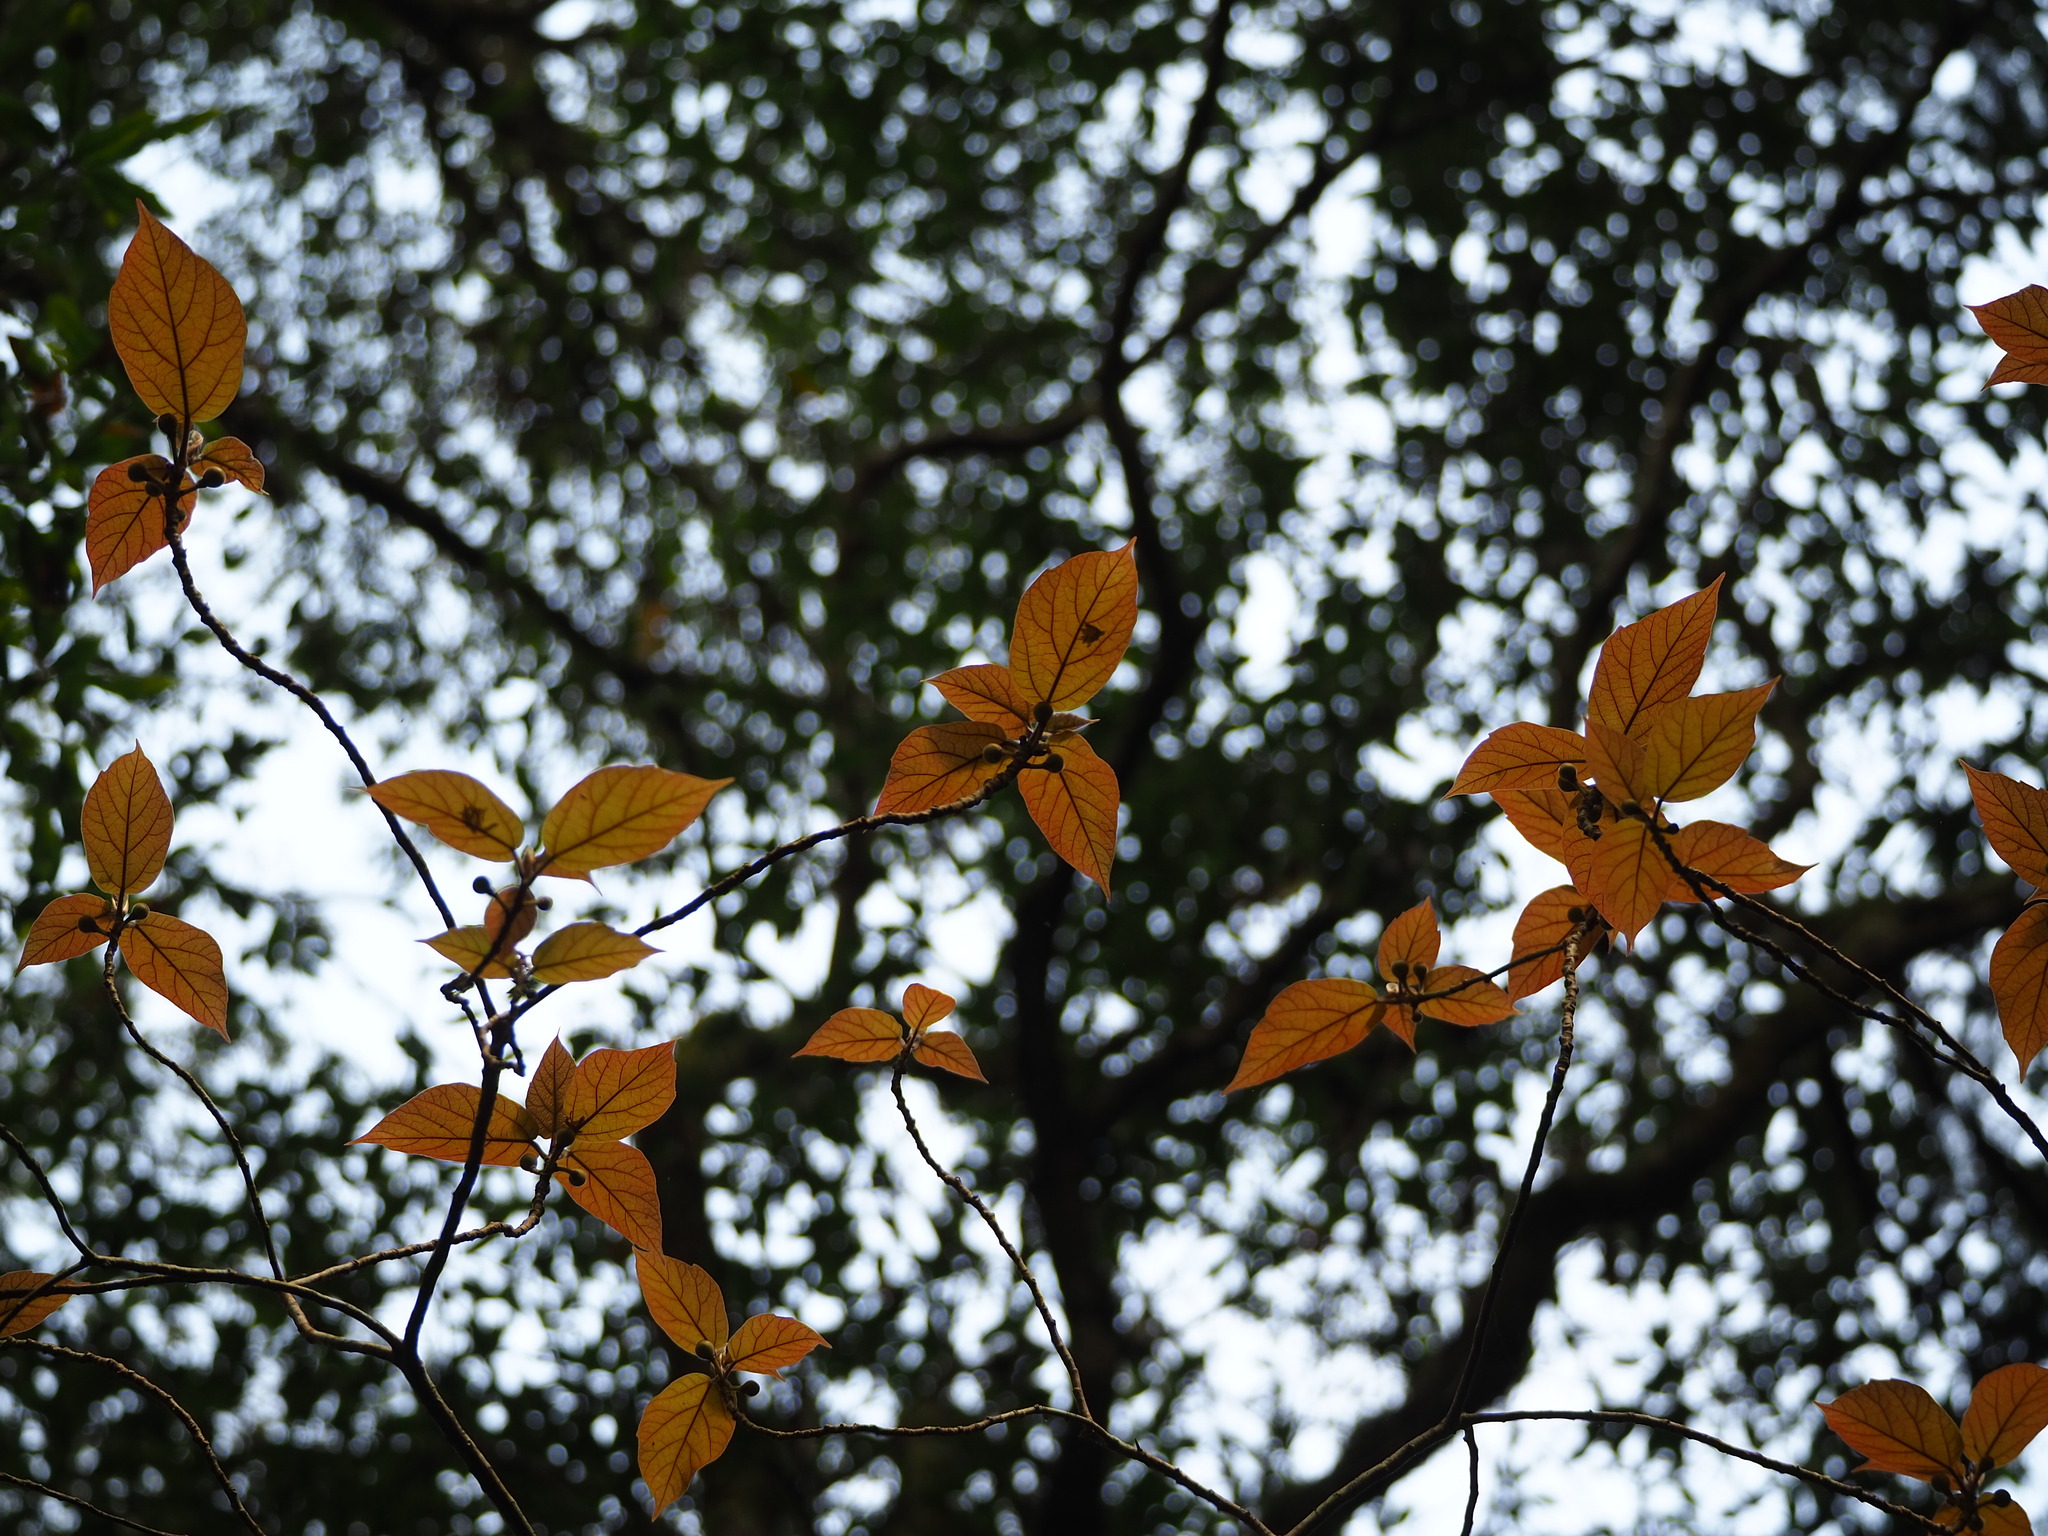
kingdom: Plantae
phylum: Tracheophyta
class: Magnoliopsida
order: Rosales
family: Moraceae
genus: Ficus
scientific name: Ficus erecta
